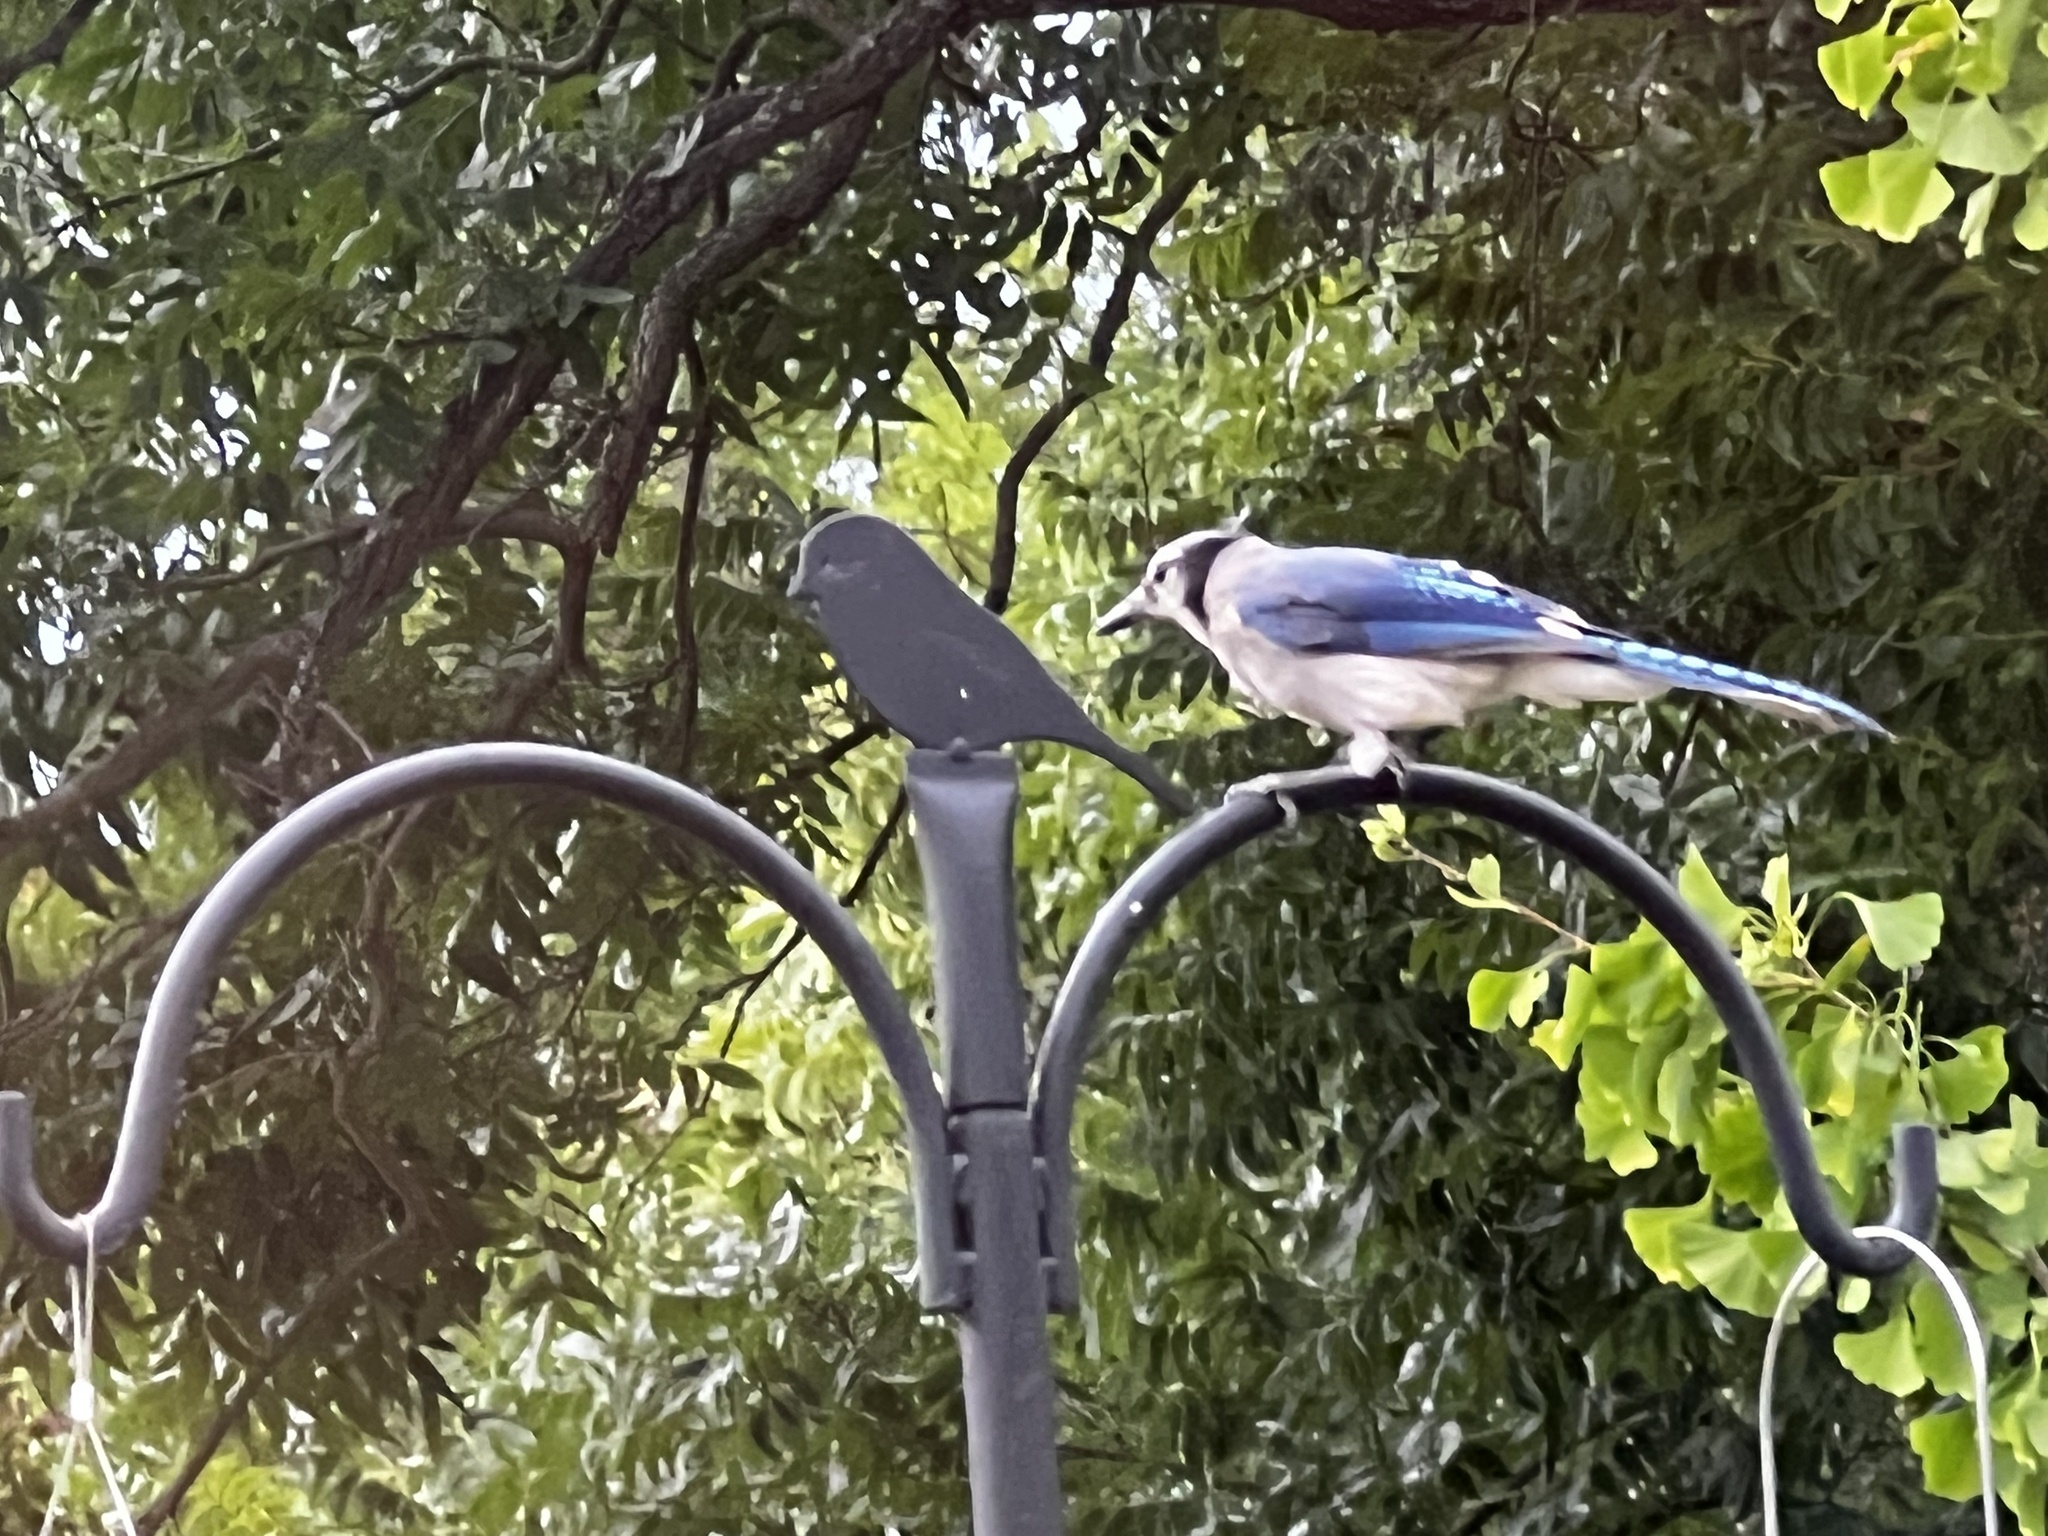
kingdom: Animalia
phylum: Chordata
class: Aves
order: Passeriformes
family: Corvidae
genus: Cyanocitta
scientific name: Cyanocitta cristata
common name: Blue jay
